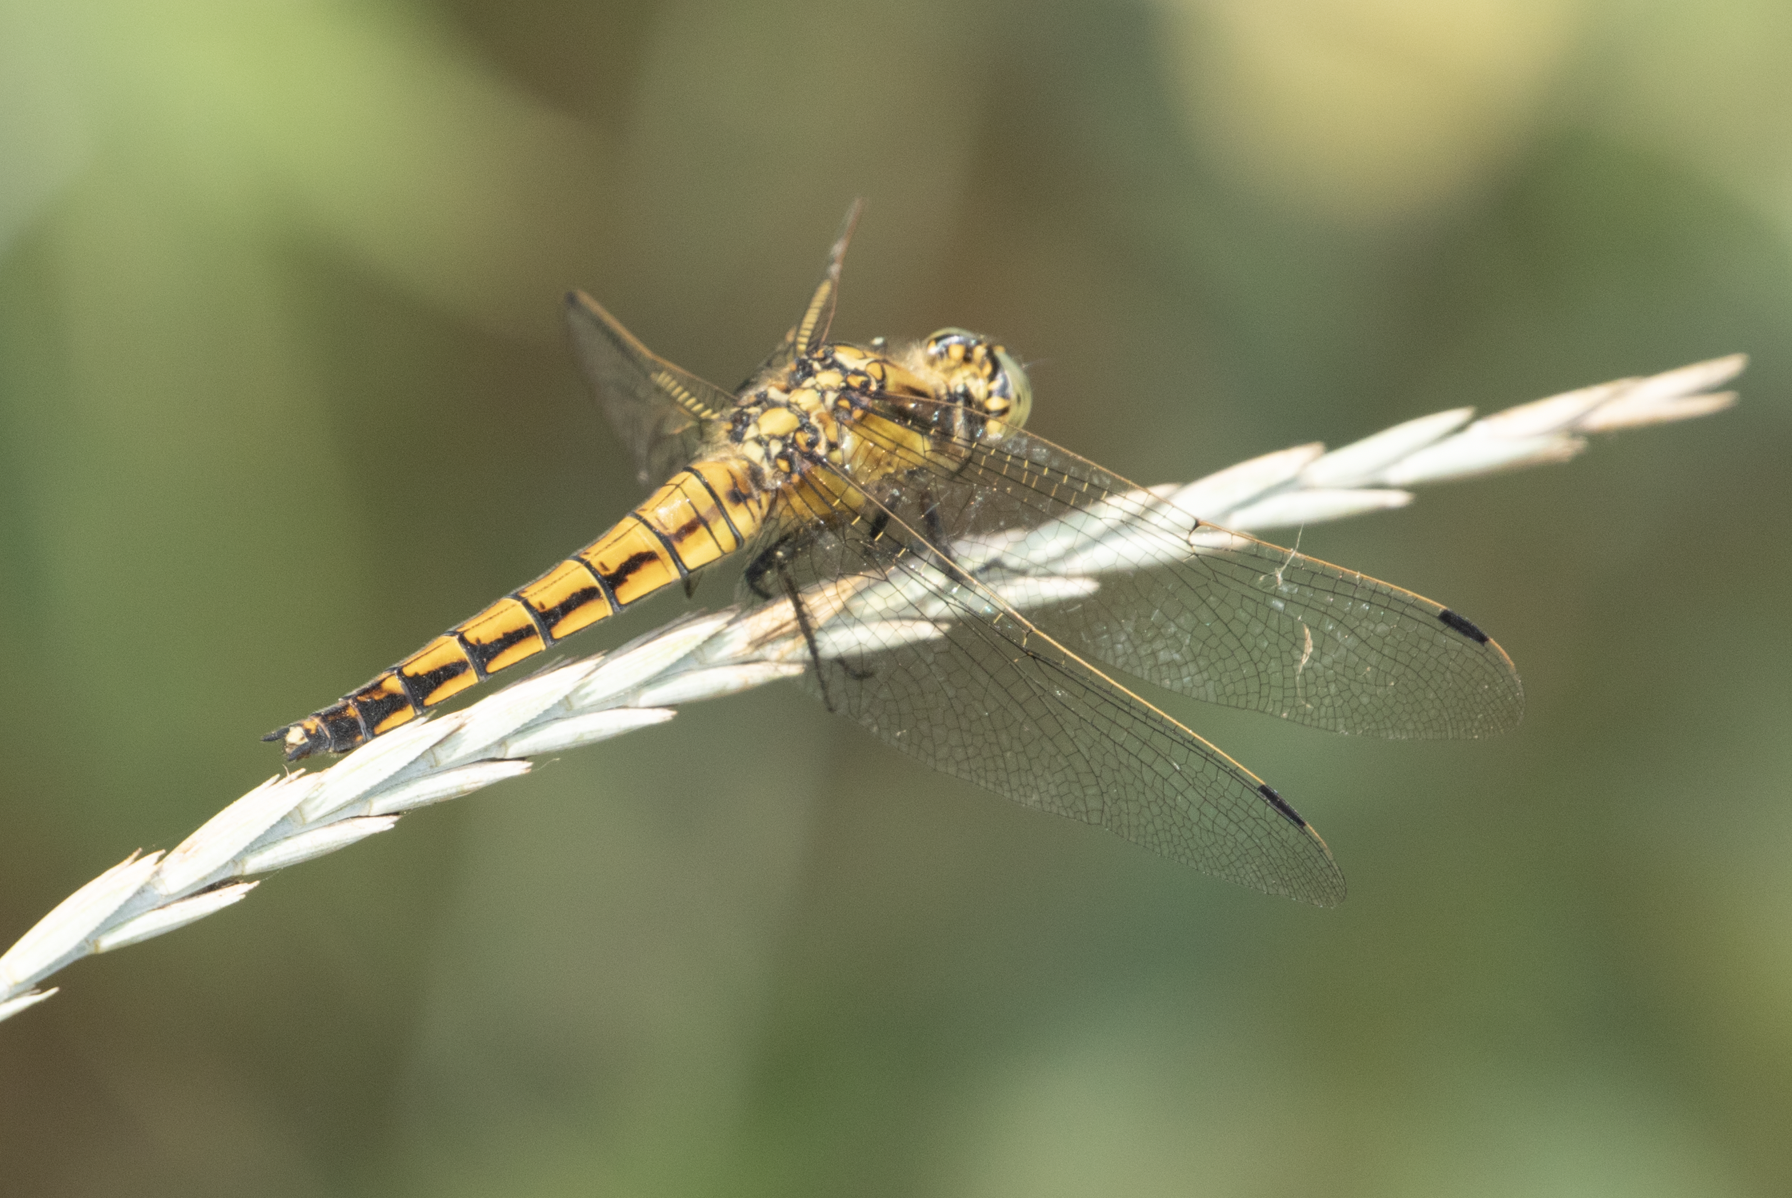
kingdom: Animalia
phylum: Arthropoda
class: Insecta
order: Odonata
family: Libellulidae
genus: Orthetrum
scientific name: Orthetrum cancellatum
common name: Black-tailed skimmer
